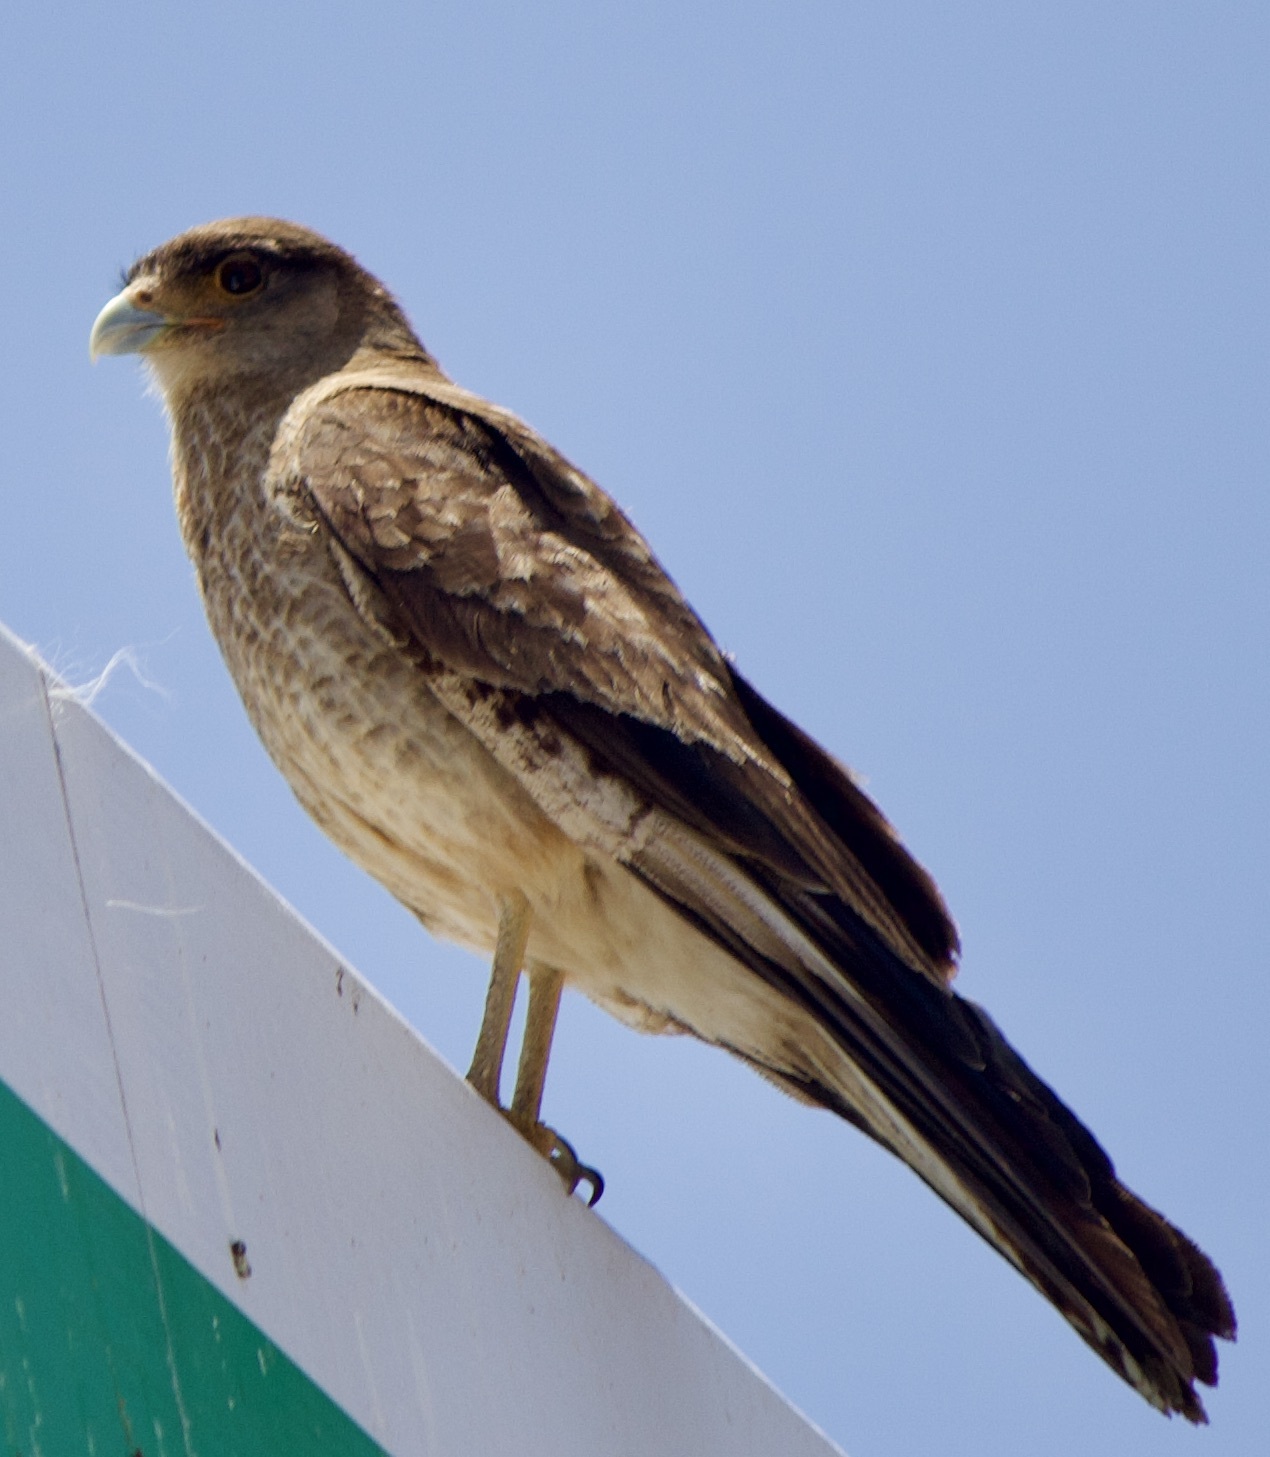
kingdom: Animalia
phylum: Chordata
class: Aves
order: Falconiformes
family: Falconidae
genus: Daptrius
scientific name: Daptrius
